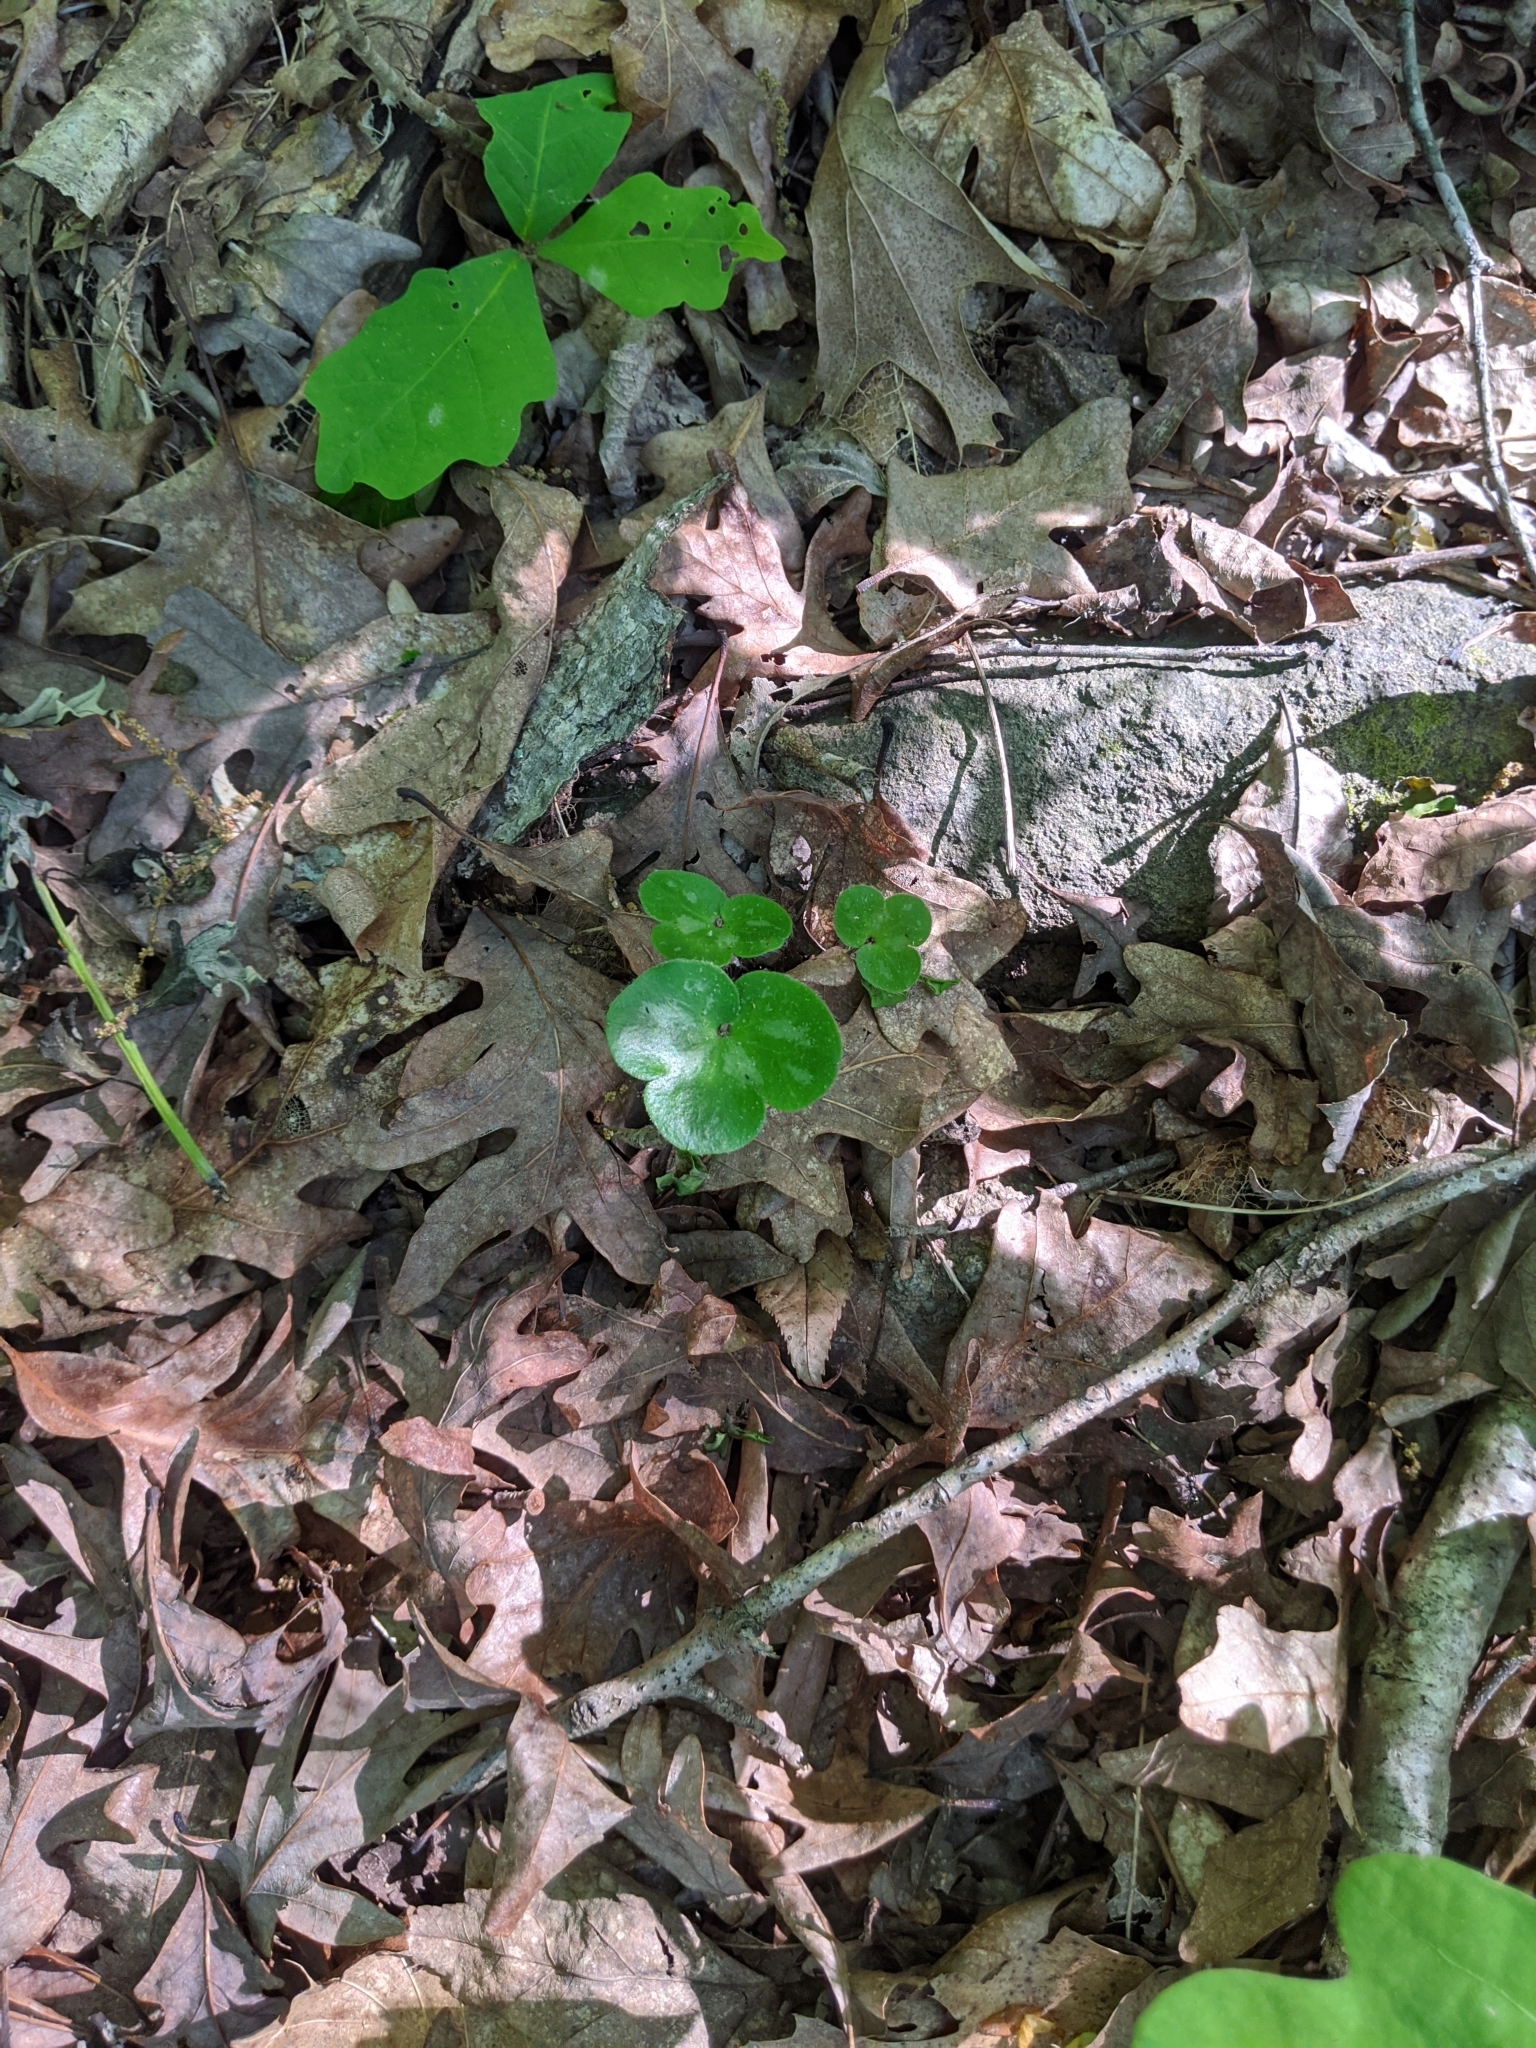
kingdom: Plantae
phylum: Tracheophyta
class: Magnoliopsida
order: Ranunculales
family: Ranunculaceae
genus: Hepatica
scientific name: Hepatica americana
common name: American hepatica
